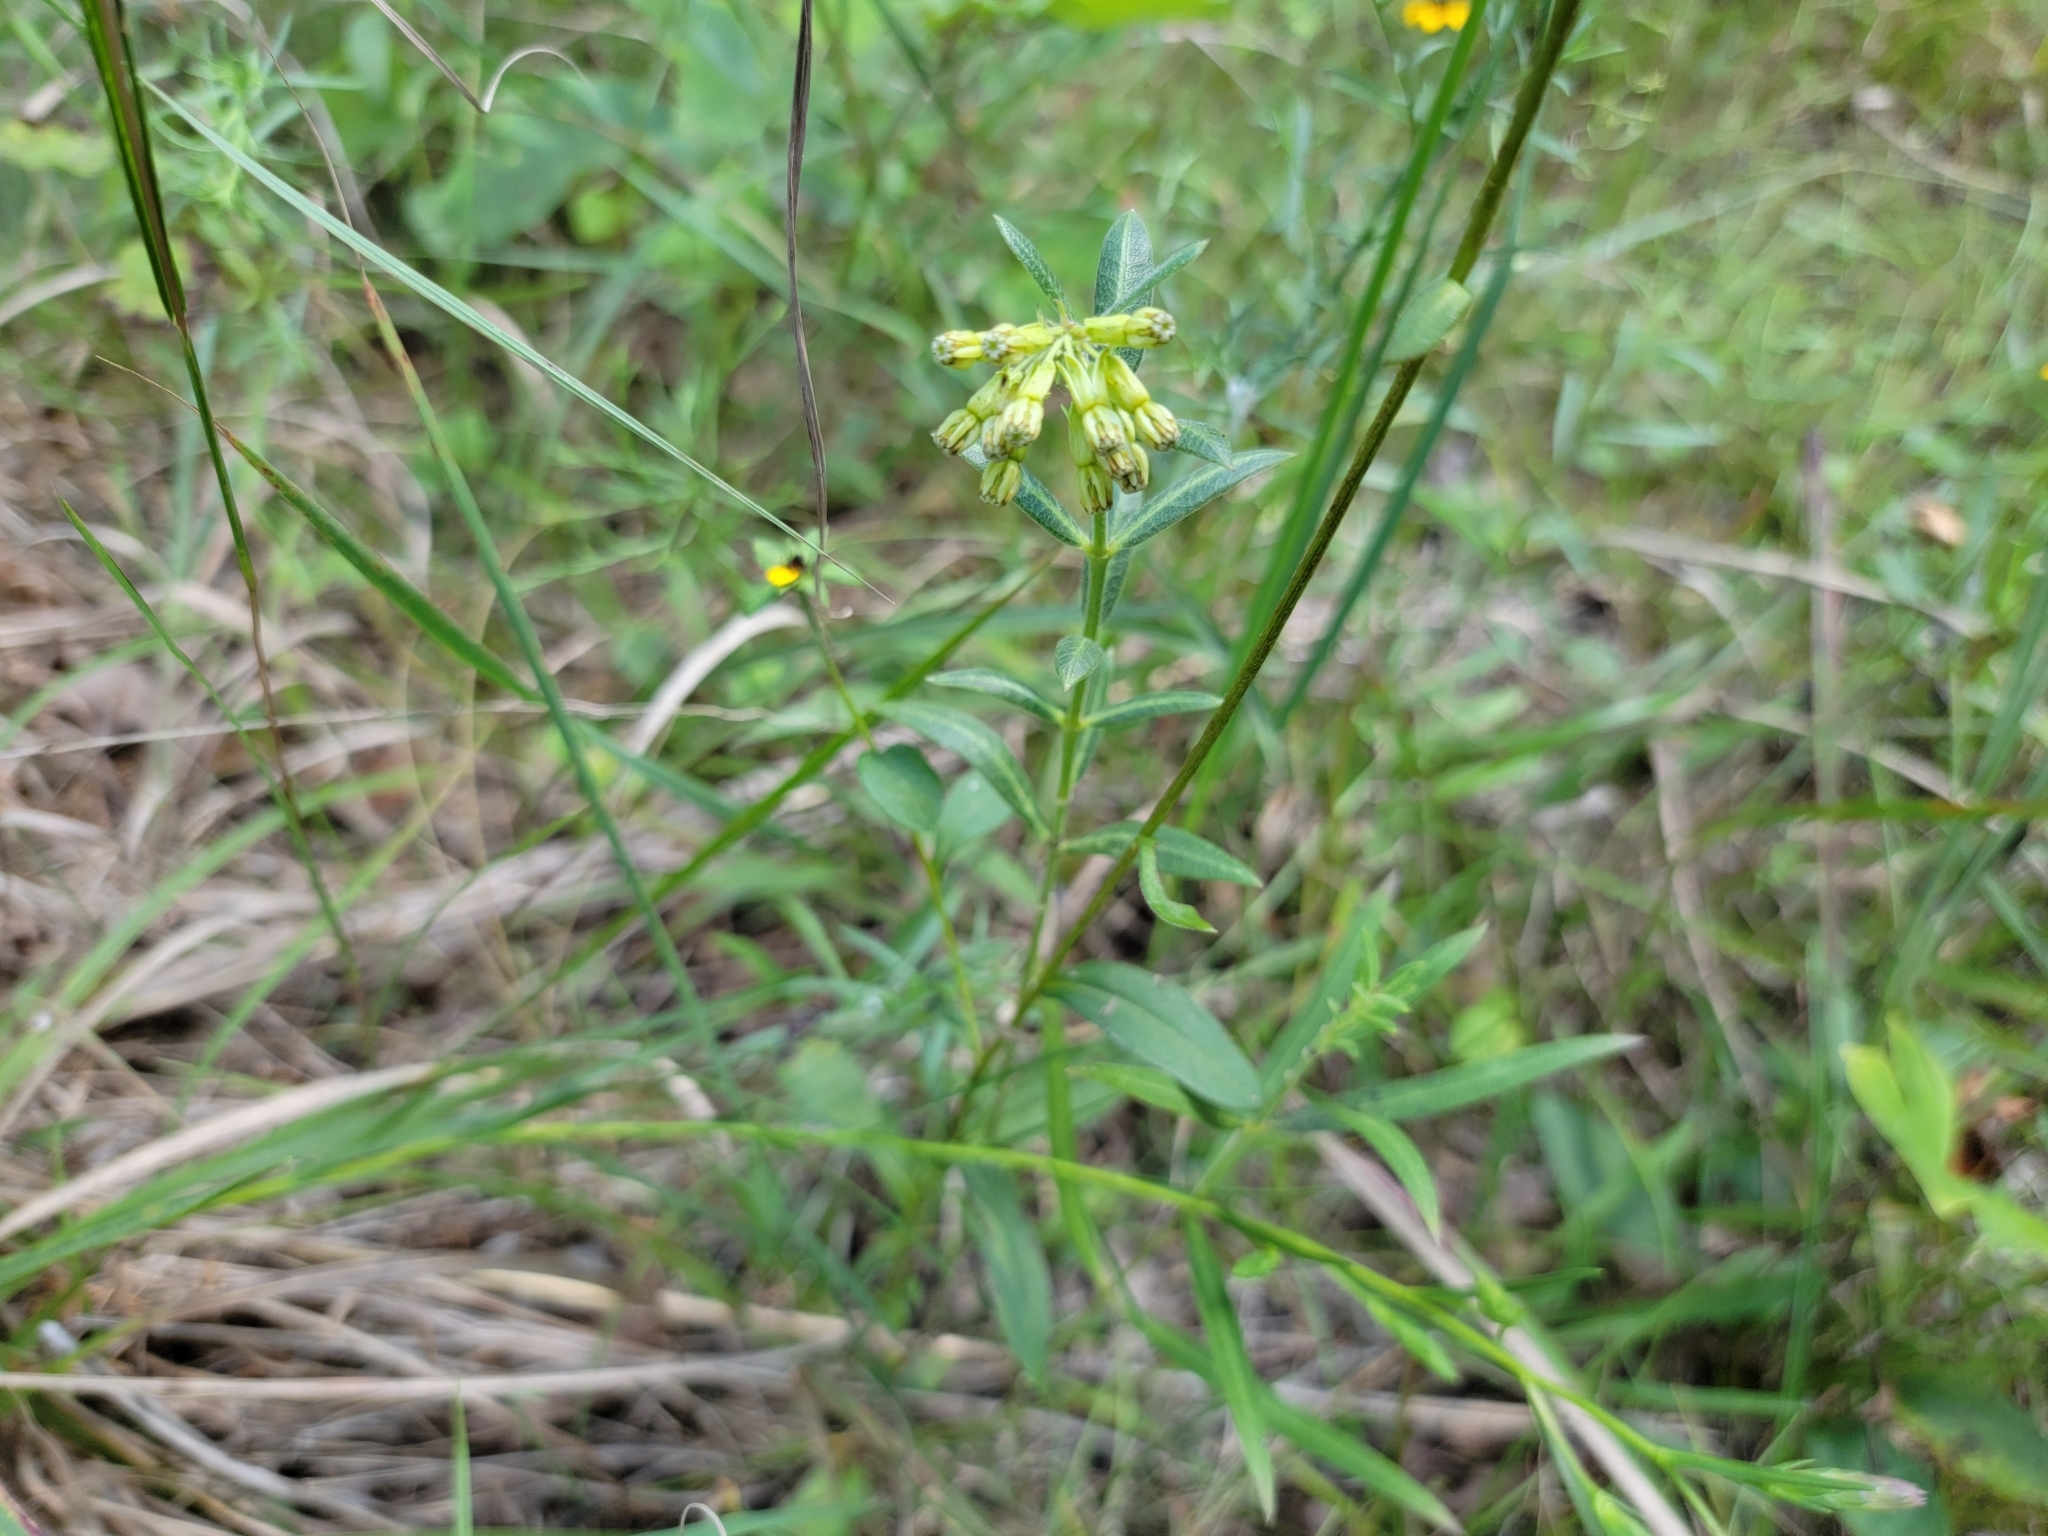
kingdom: Plantae
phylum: Tracheophyta
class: Magnoliopsida
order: Gentianales
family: Apocynaceae
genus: Asclepias
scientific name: Asclepias viridiflora
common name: Green comet milkweed
